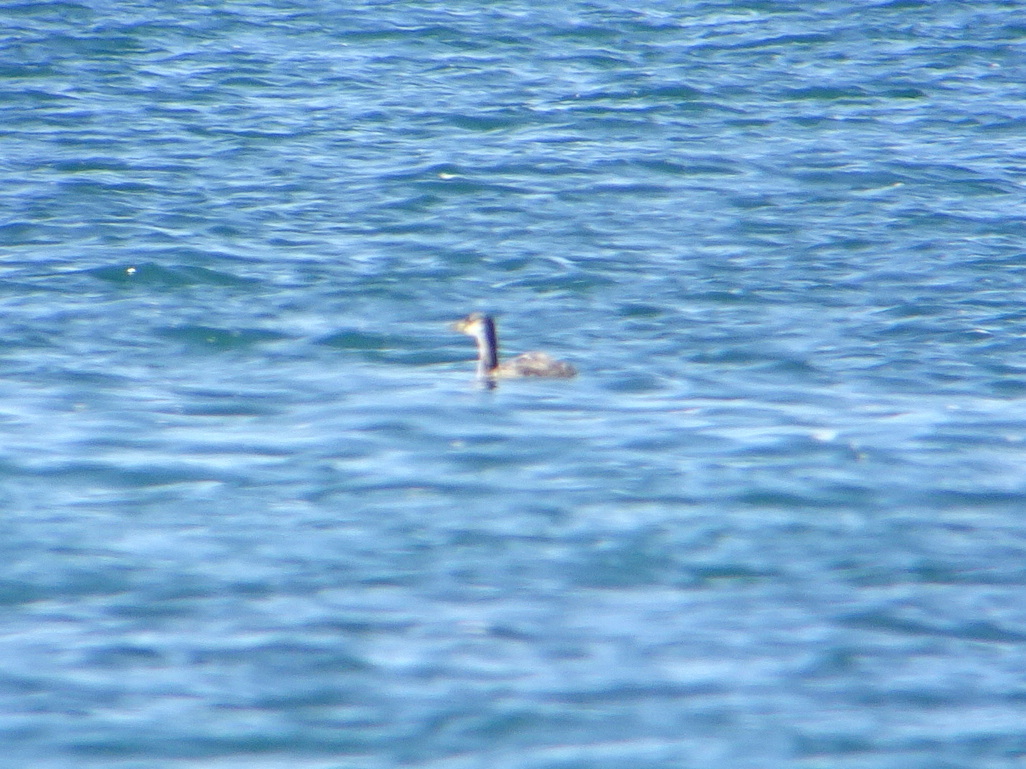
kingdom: Animalia
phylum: Chordata
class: Aves
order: Podicipediformes
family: Podicipedidae
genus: Podiceps
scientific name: Podiceps grisegena
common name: Red-necked grebe
